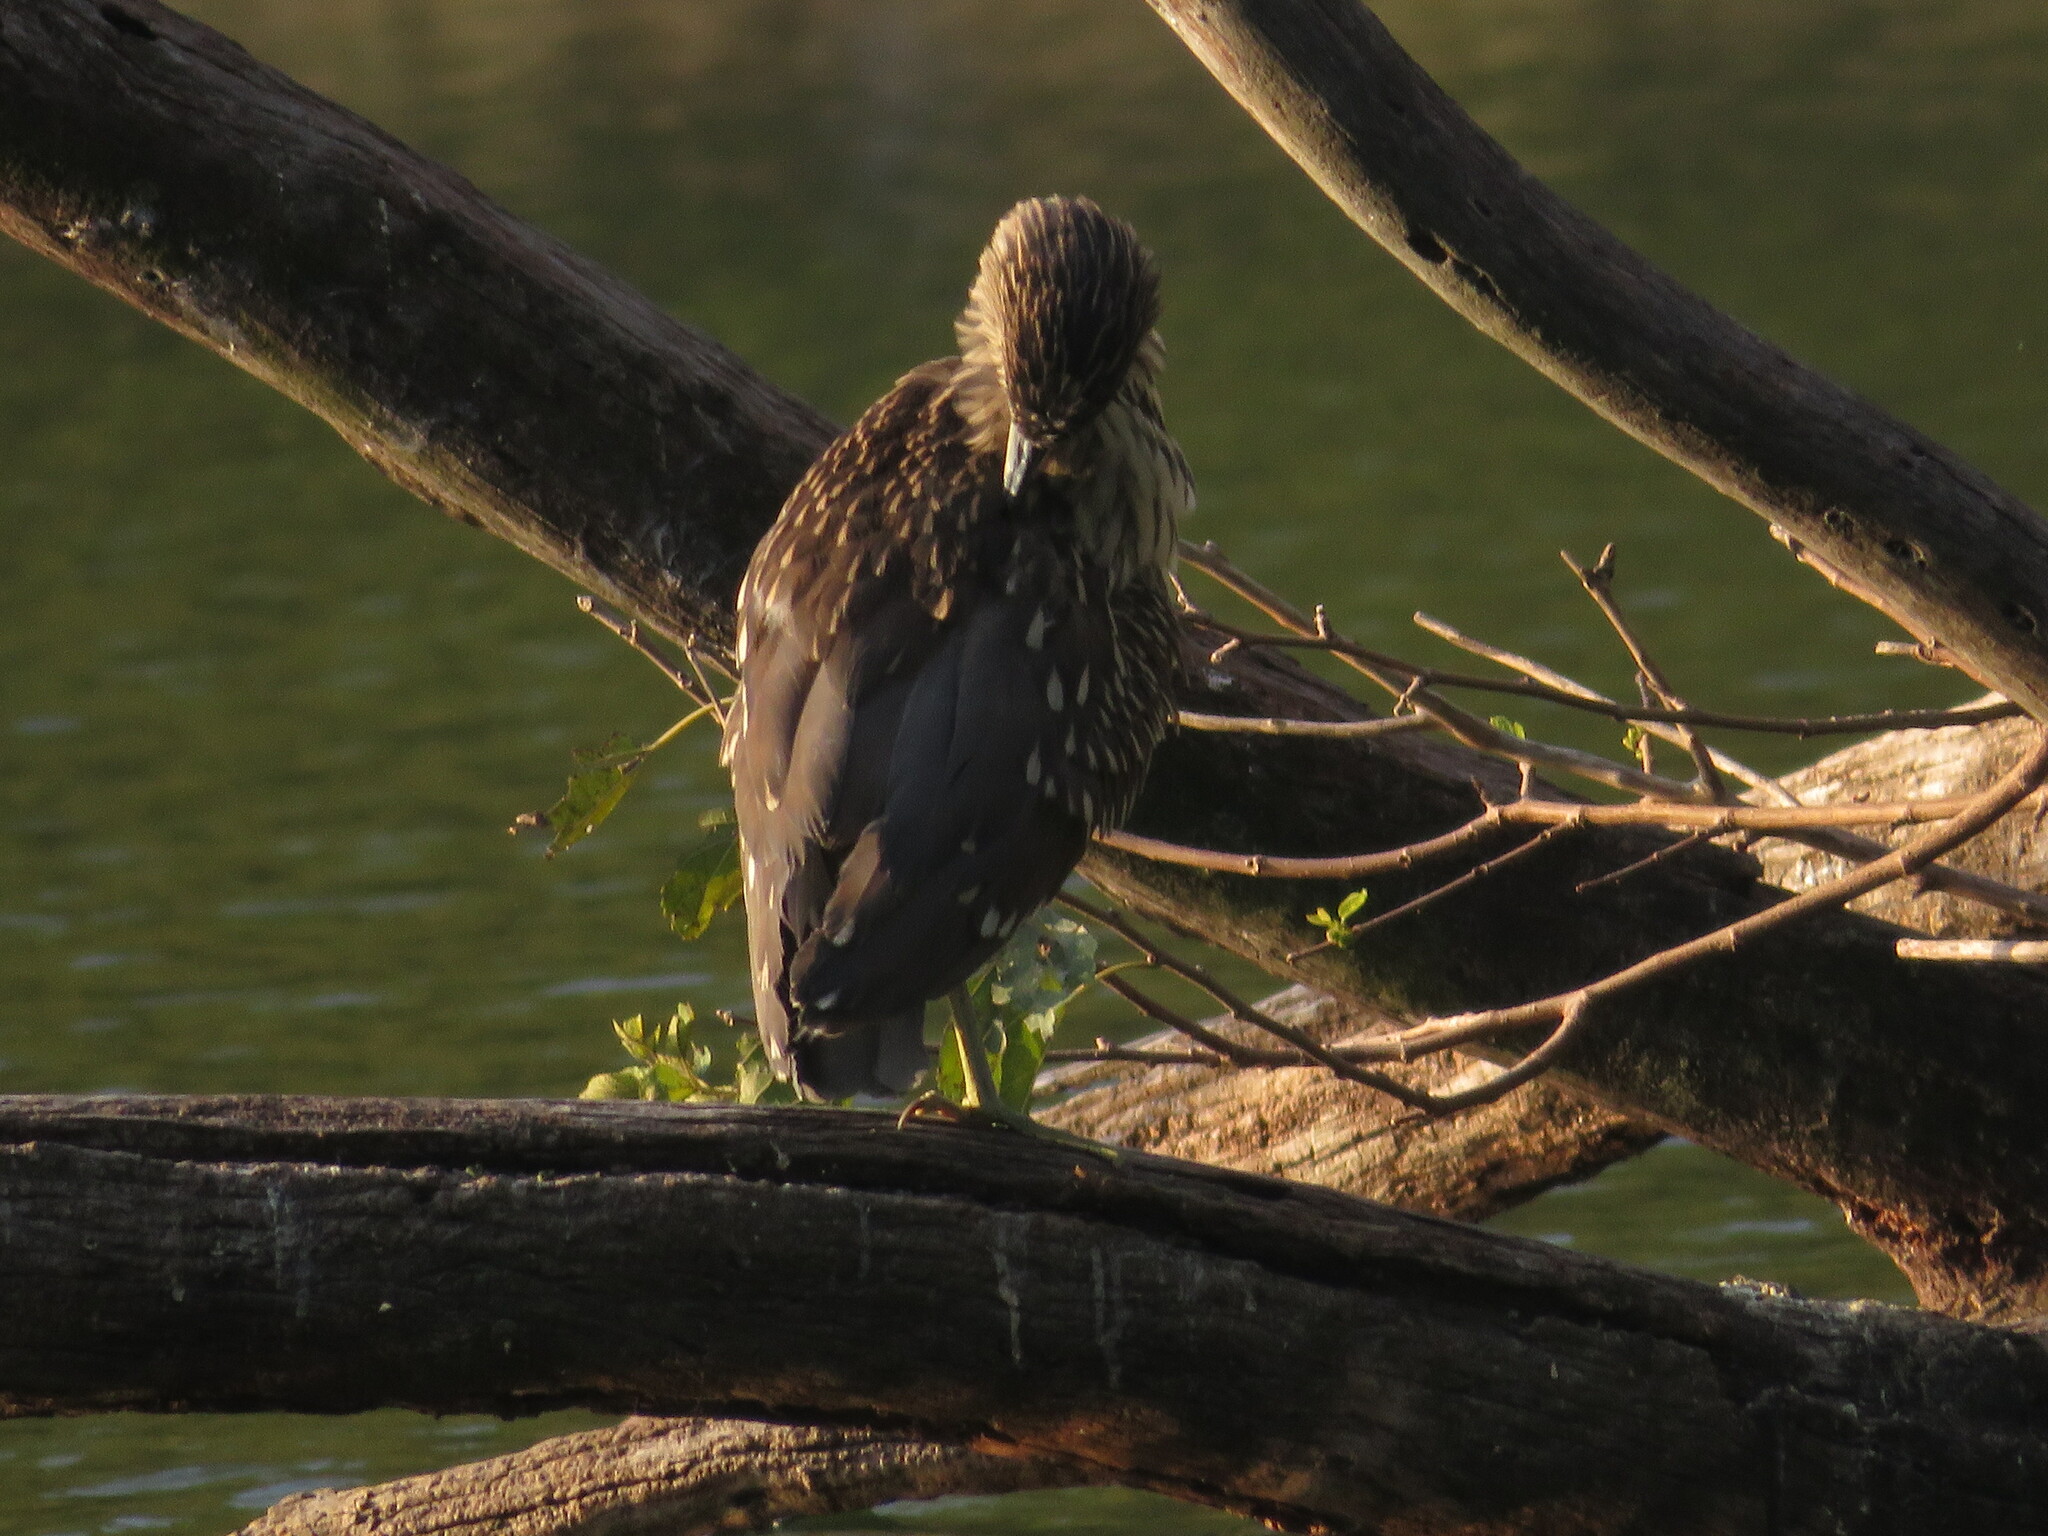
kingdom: Animalia
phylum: Chordata
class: Aves
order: Pelecaniformes
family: Ardeidae
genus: Nycticorax
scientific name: Nycticorax nycticorax
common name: Black-crowned night heron
